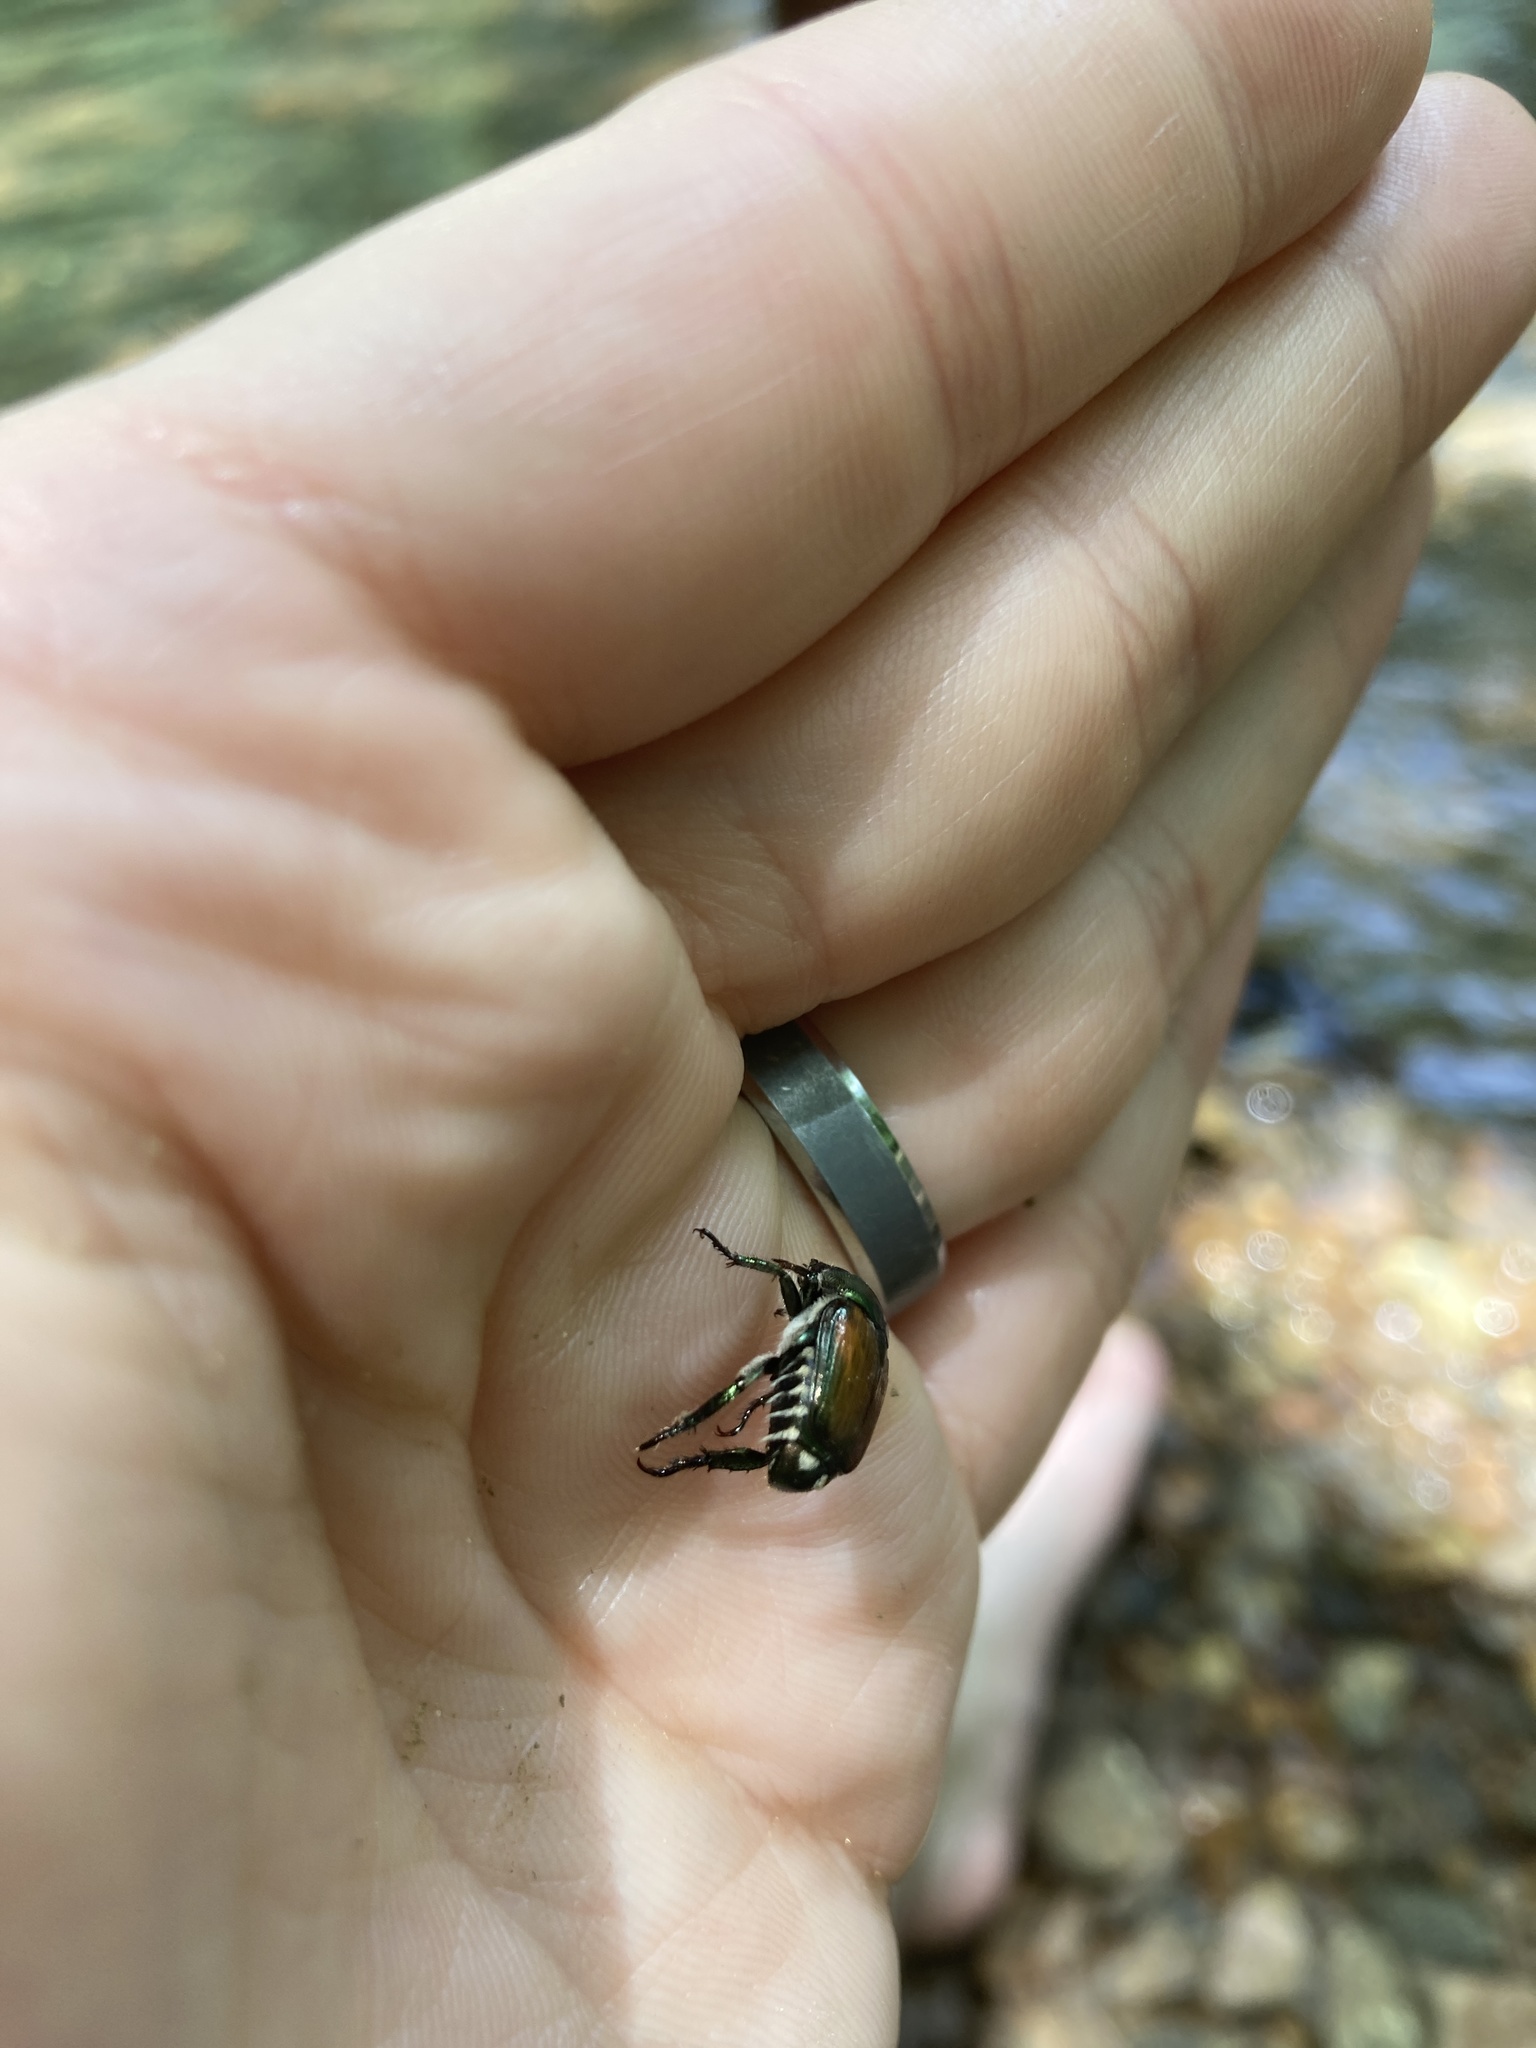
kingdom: Animalia
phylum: Arthropoda
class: Insecta
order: Coleoptera
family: Scarabaeidae
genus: Popillia
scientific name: Popillia japonica
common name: Japanese beetle
